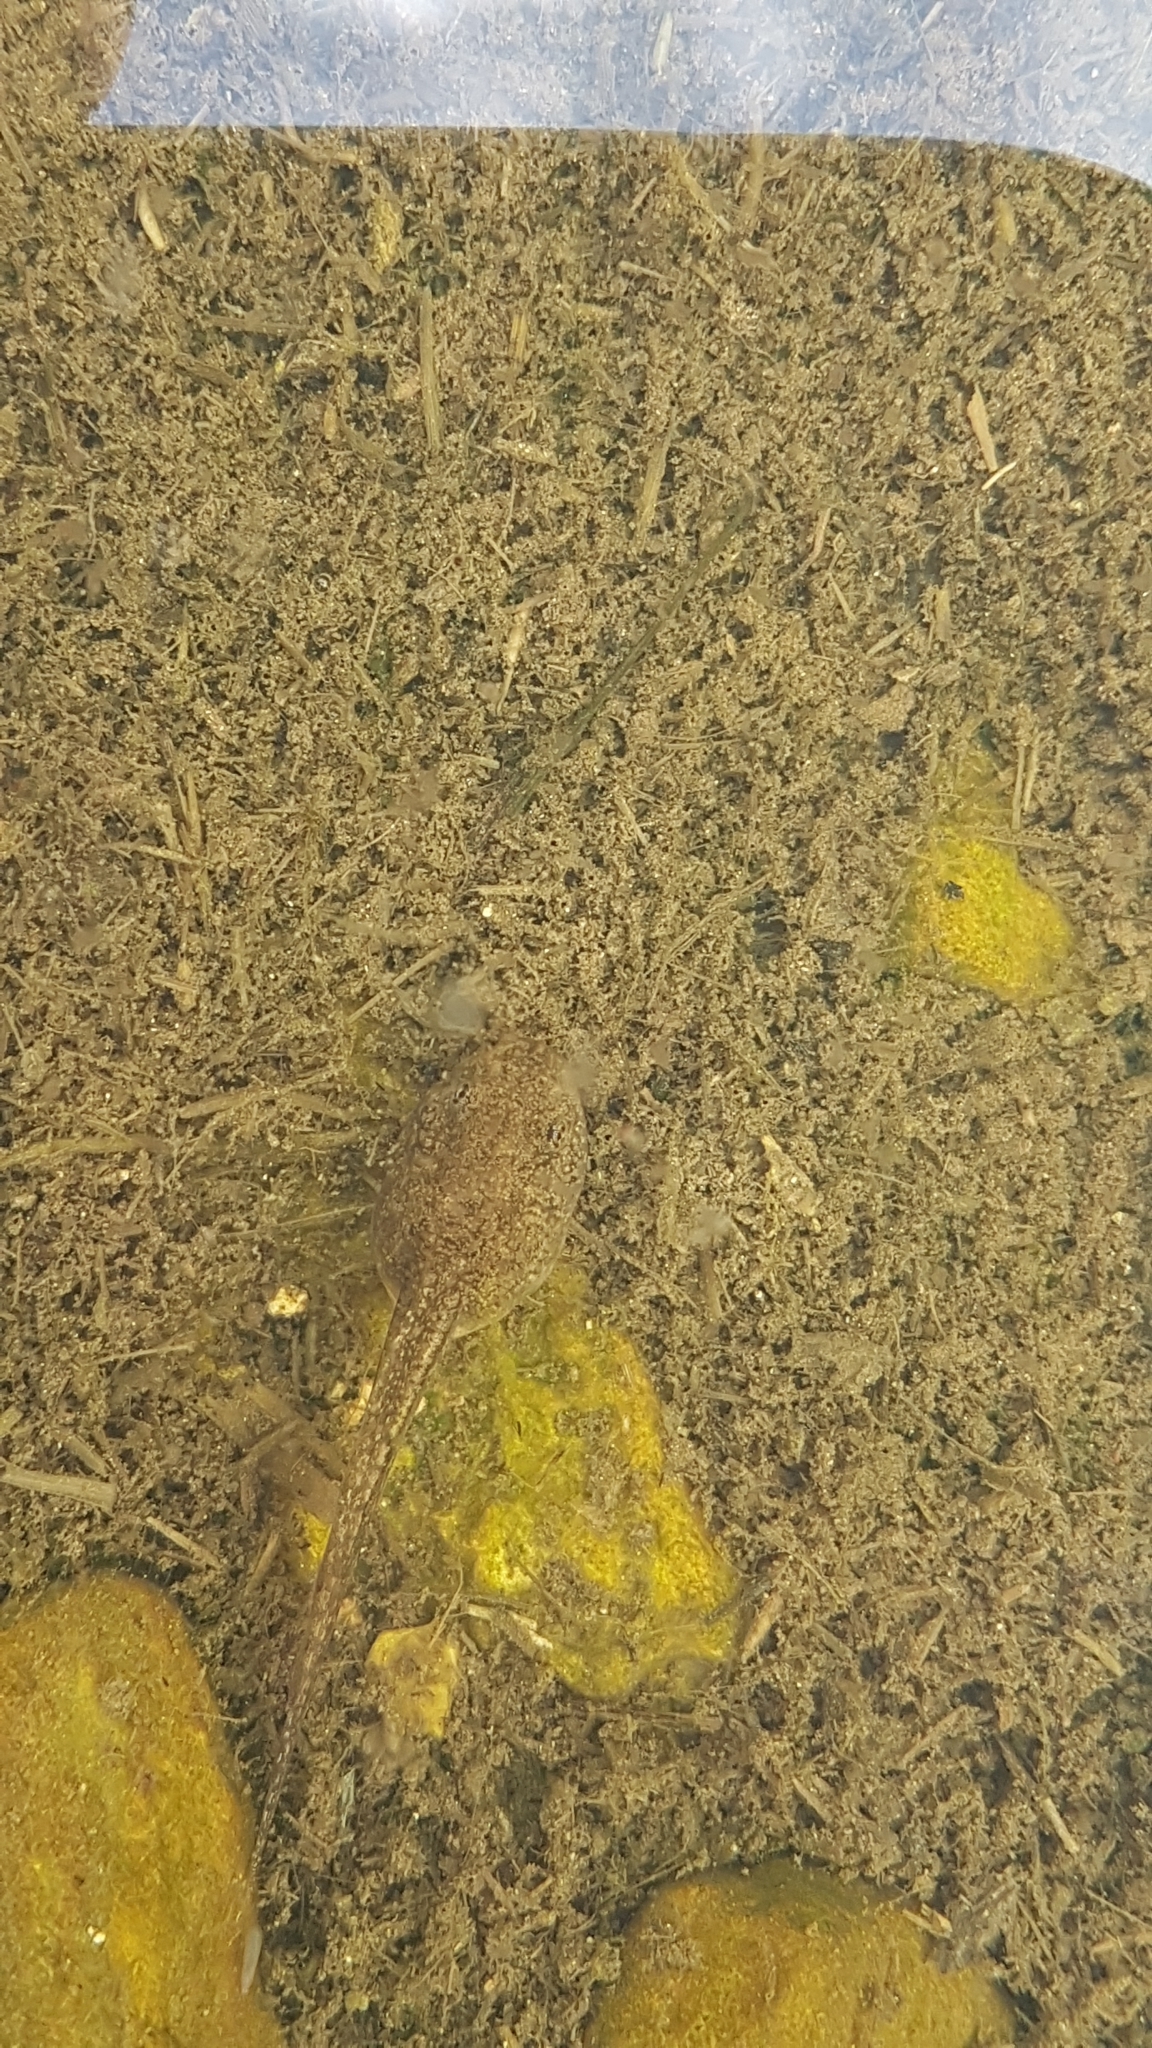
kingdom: Animalia
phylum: Chordata
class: Amphibia
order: Anura
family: Ranidae
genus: Rana
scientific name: Rana temporaria
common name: Common frog
